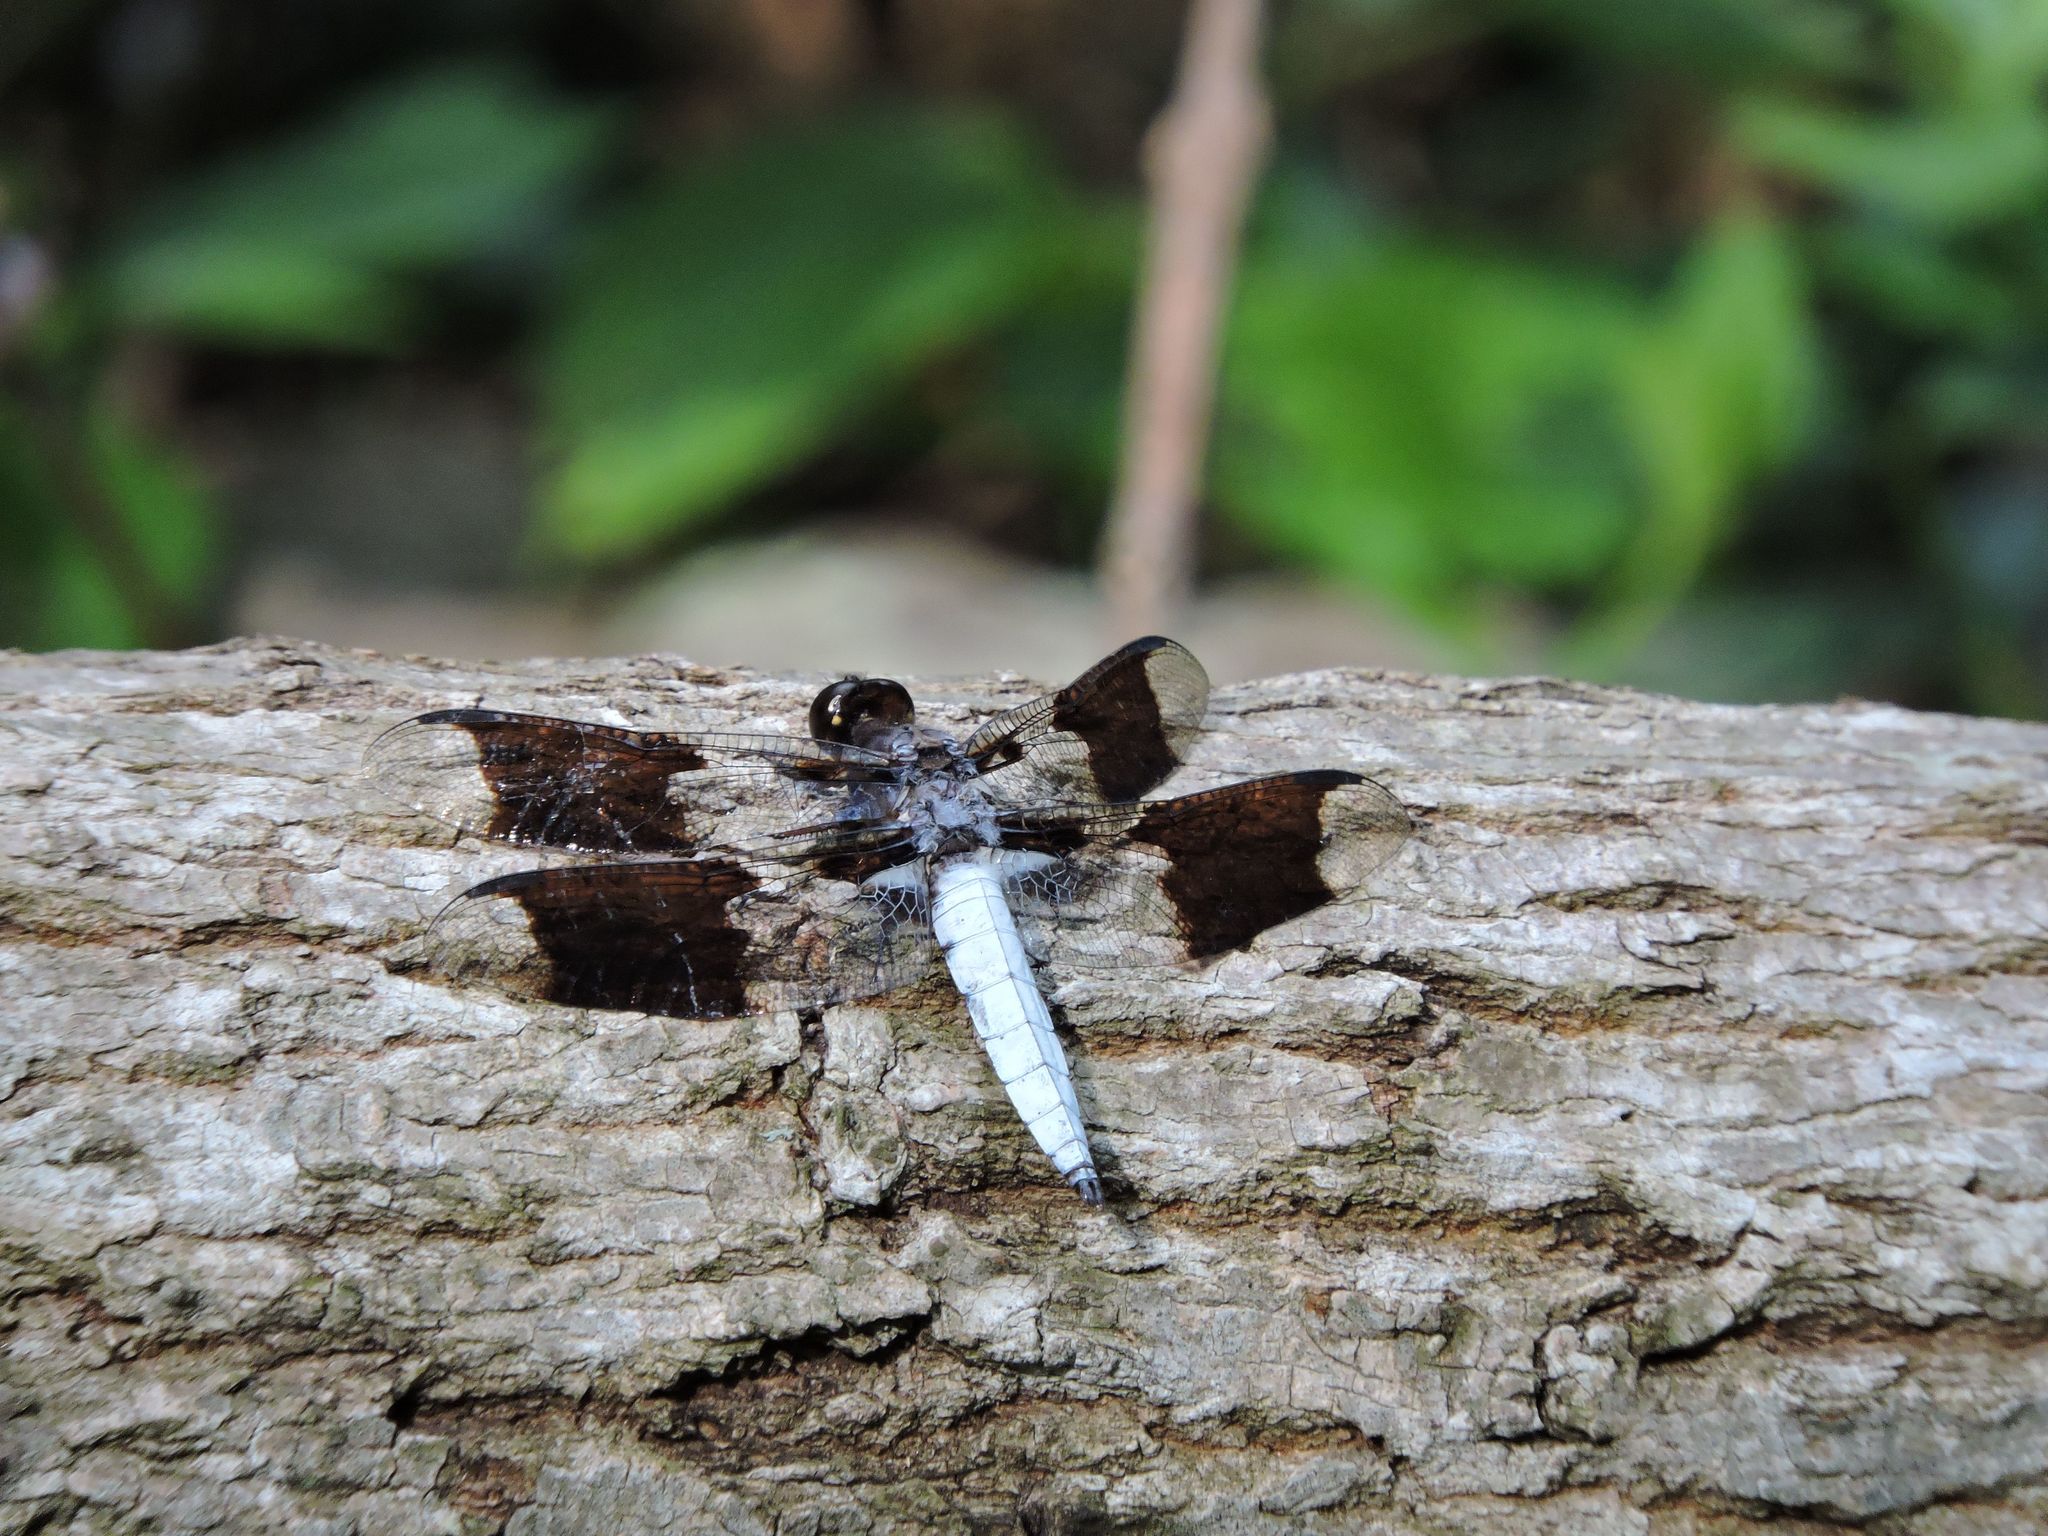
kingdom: Animalia
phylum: Arthropoda
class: Insecta
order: Odonata
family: Libellulidae
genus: Plathemis
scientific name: Plathemis lydia
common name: Common whitetail
